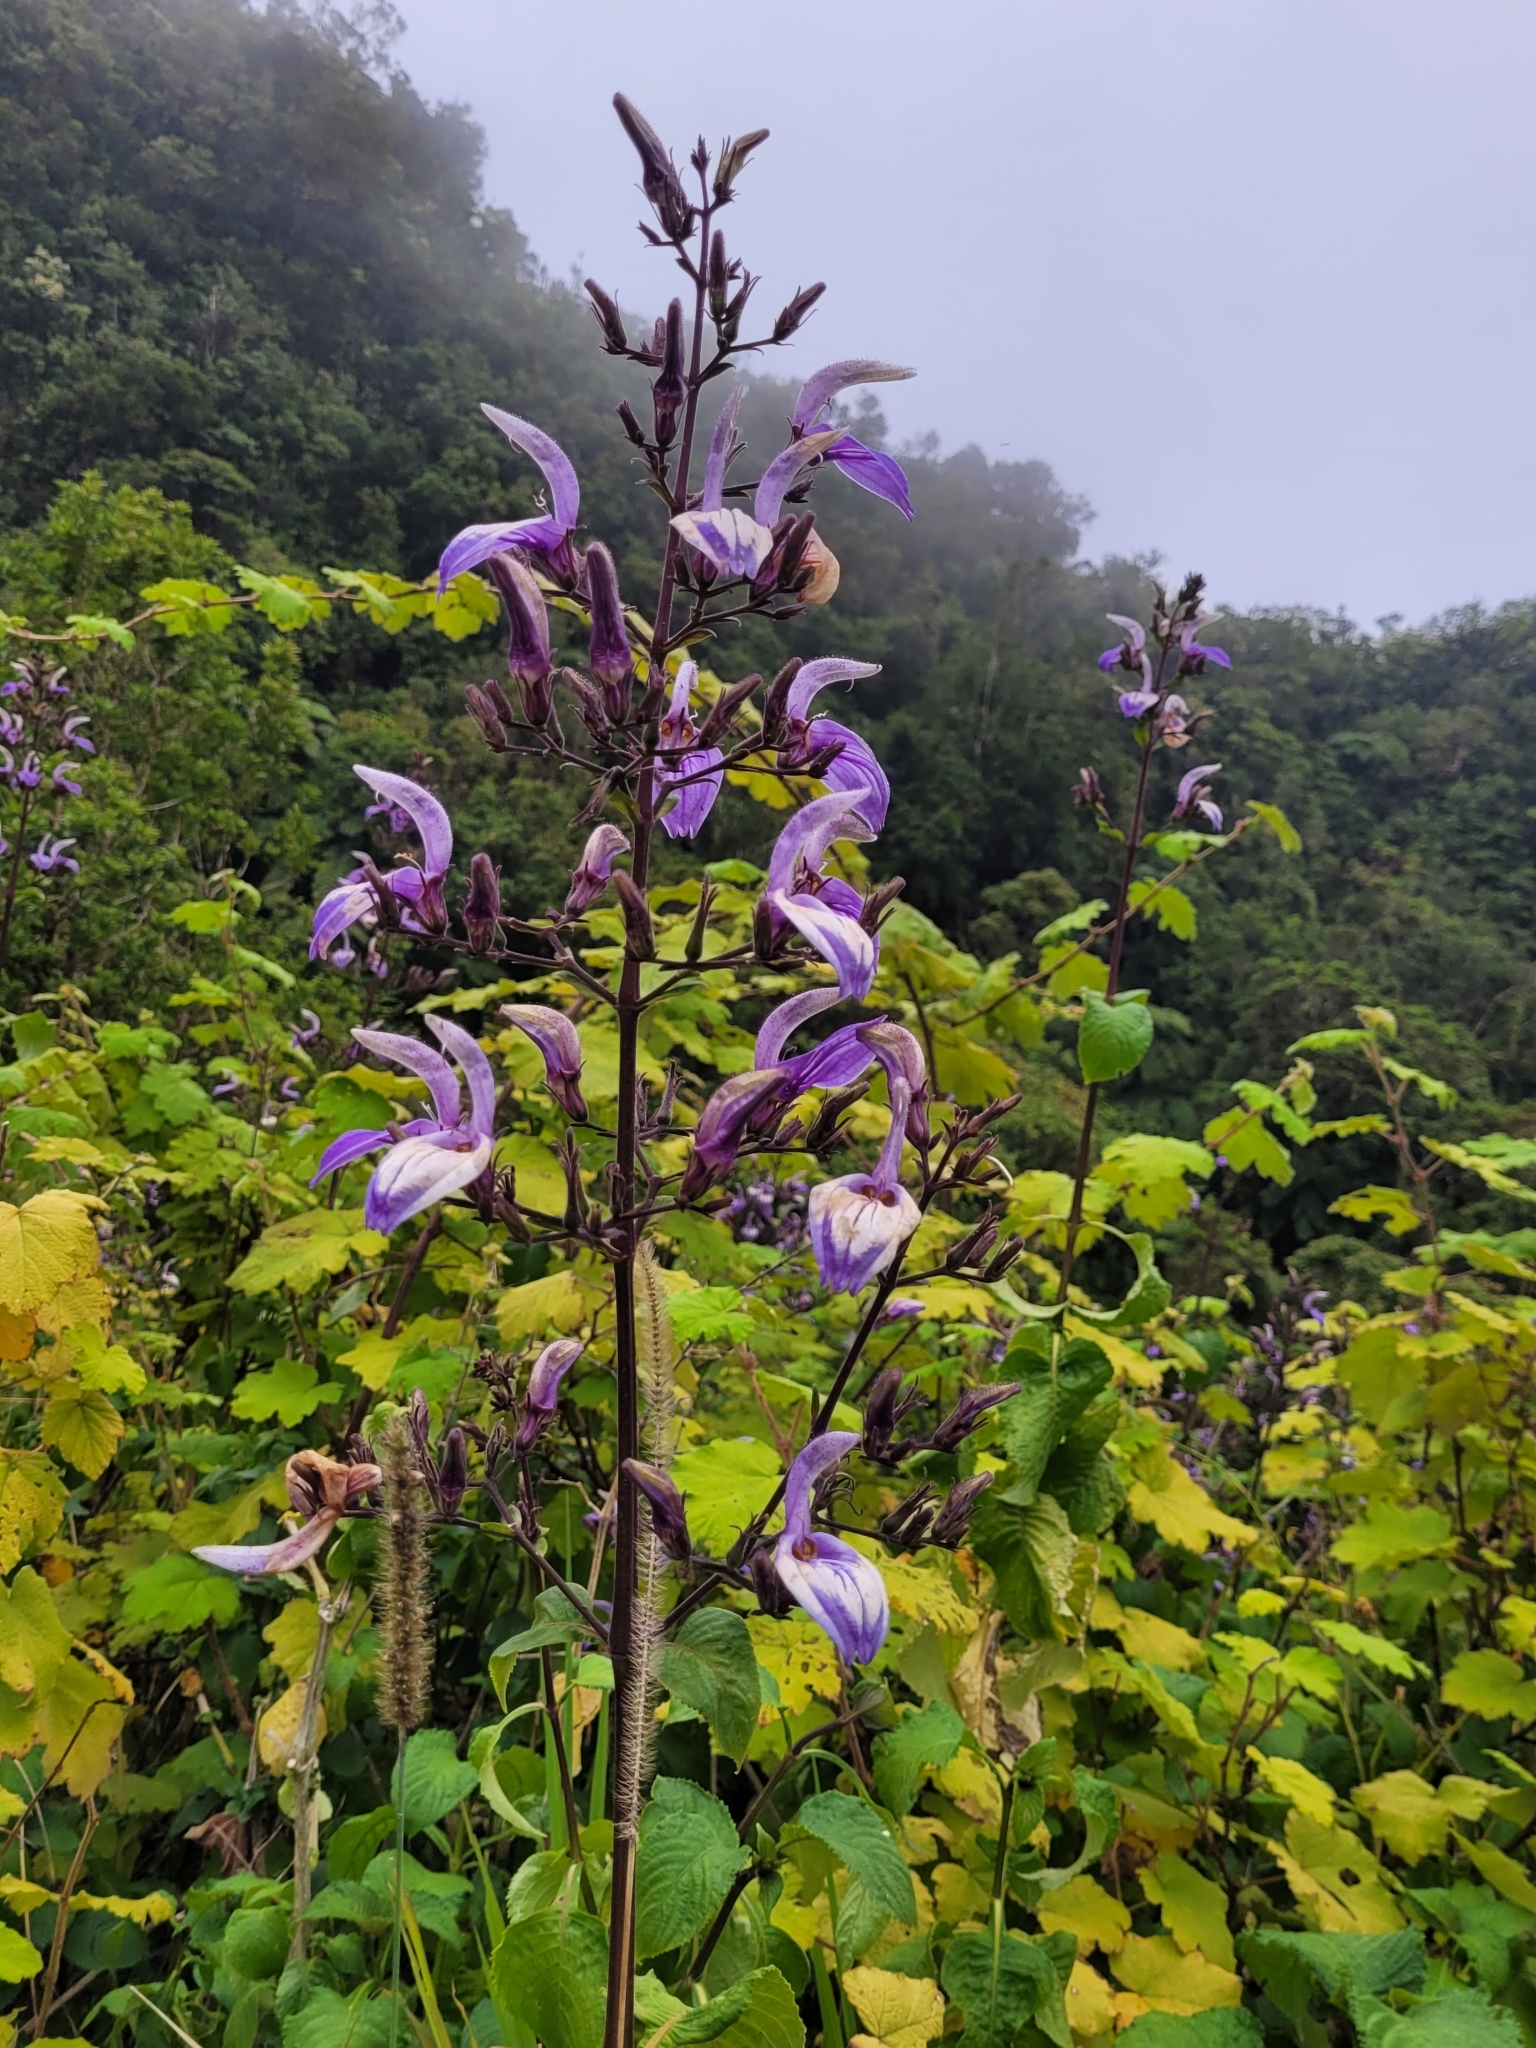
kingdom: Plantae
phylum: Tracheophyta
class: Magnoliopsida
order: Lamiales
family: Acanthaceae
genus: Brillantaisia
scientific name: Brillantaisia owariensis
